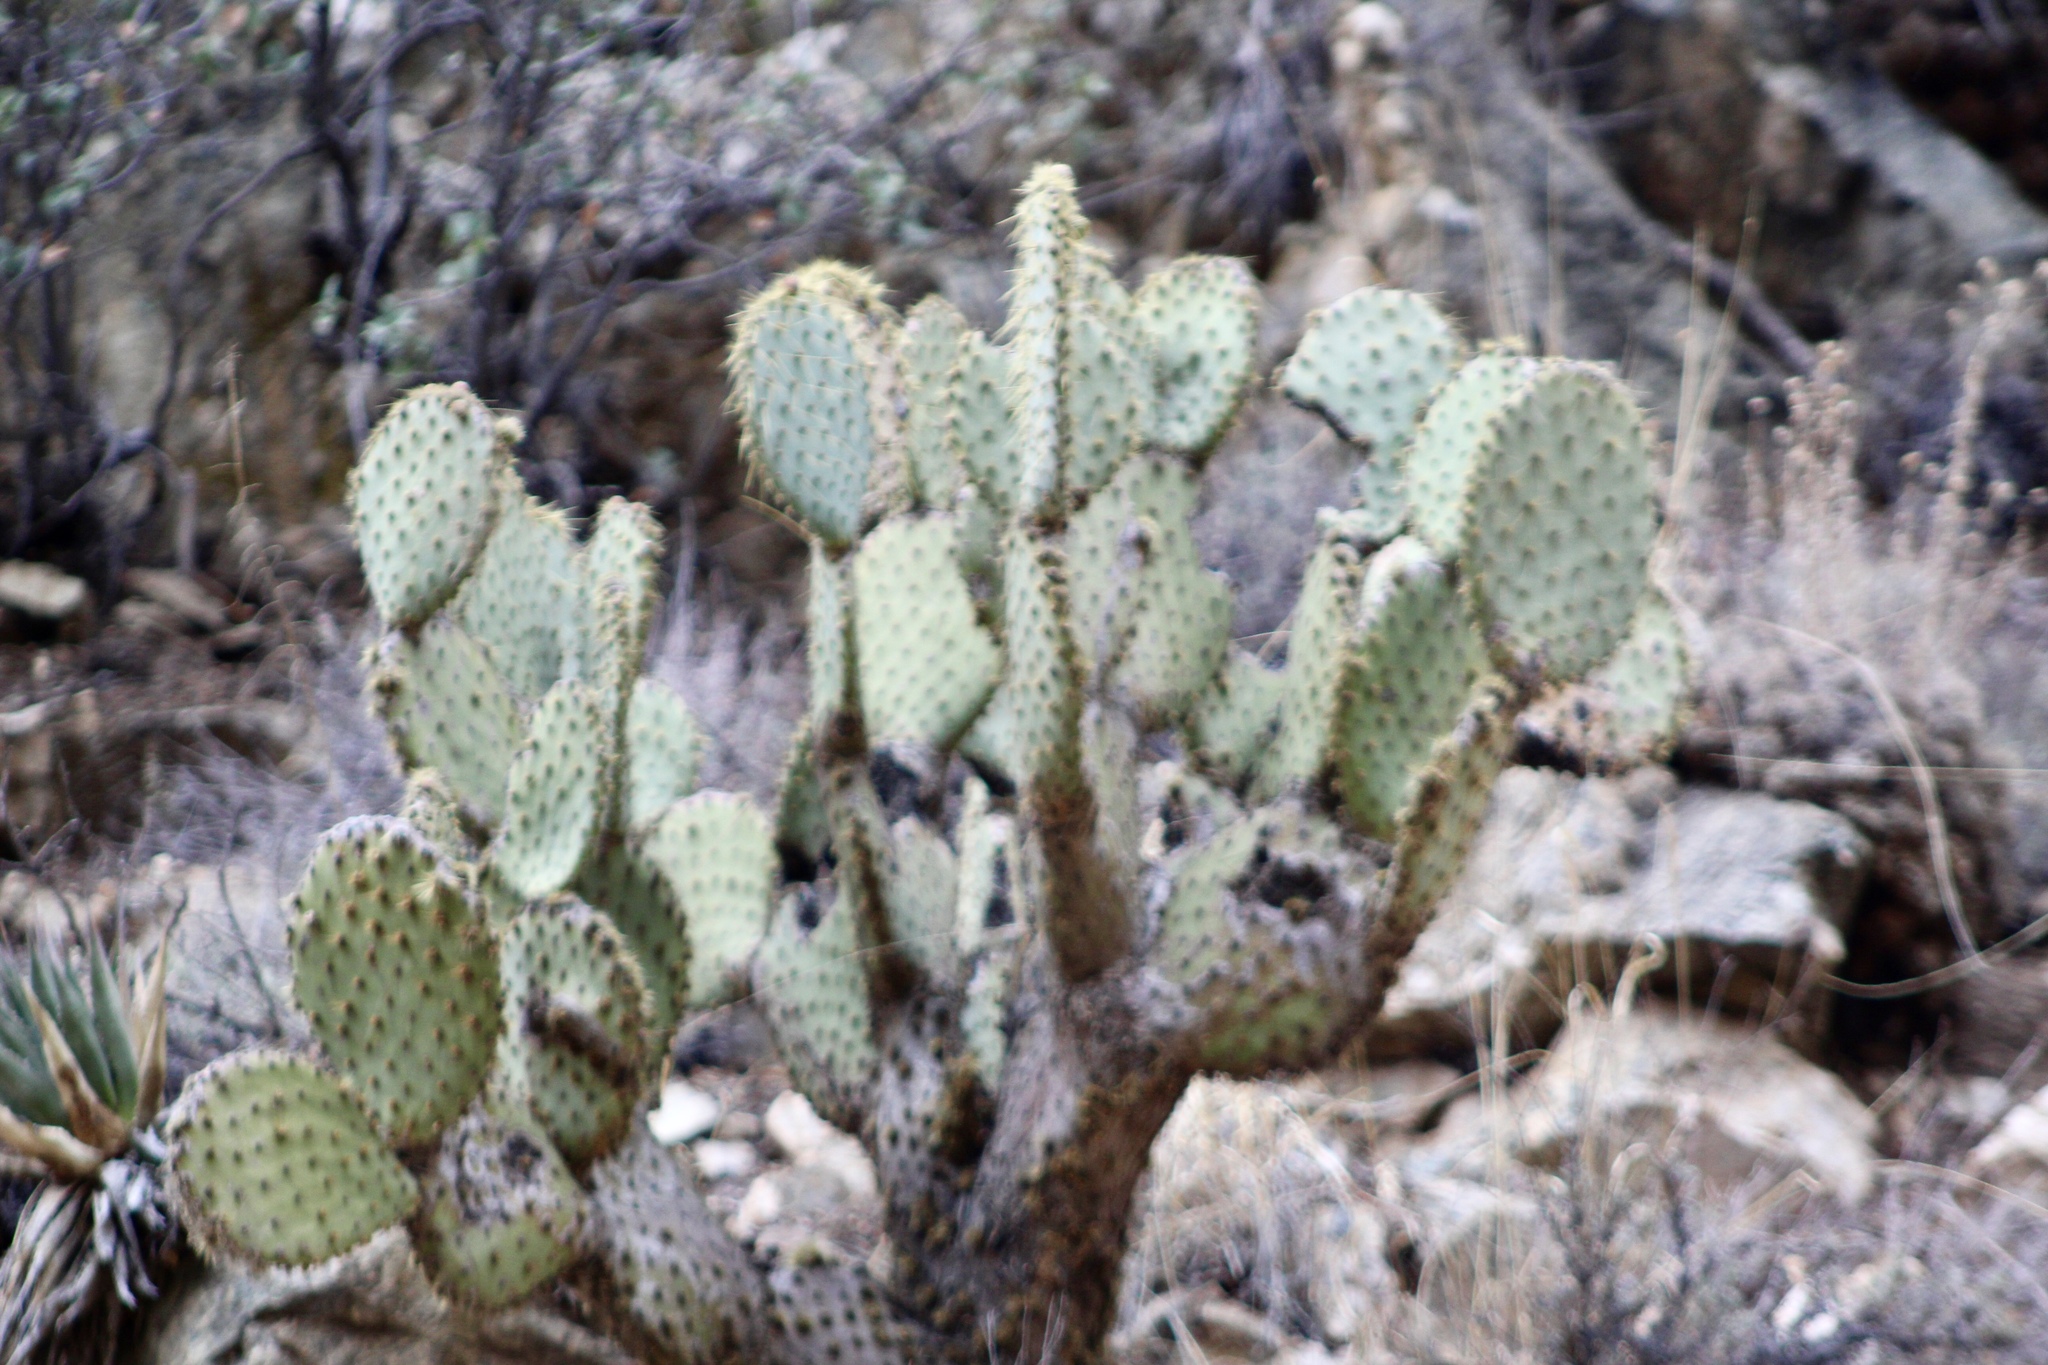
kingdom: Plantae
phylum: Tracheophyta
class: Magnoliopsida
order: Caryophyllales
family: Cactaceae
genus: Opuntia
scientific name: Opuntia chlorotica
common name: Dollar-joint prickly-pear
